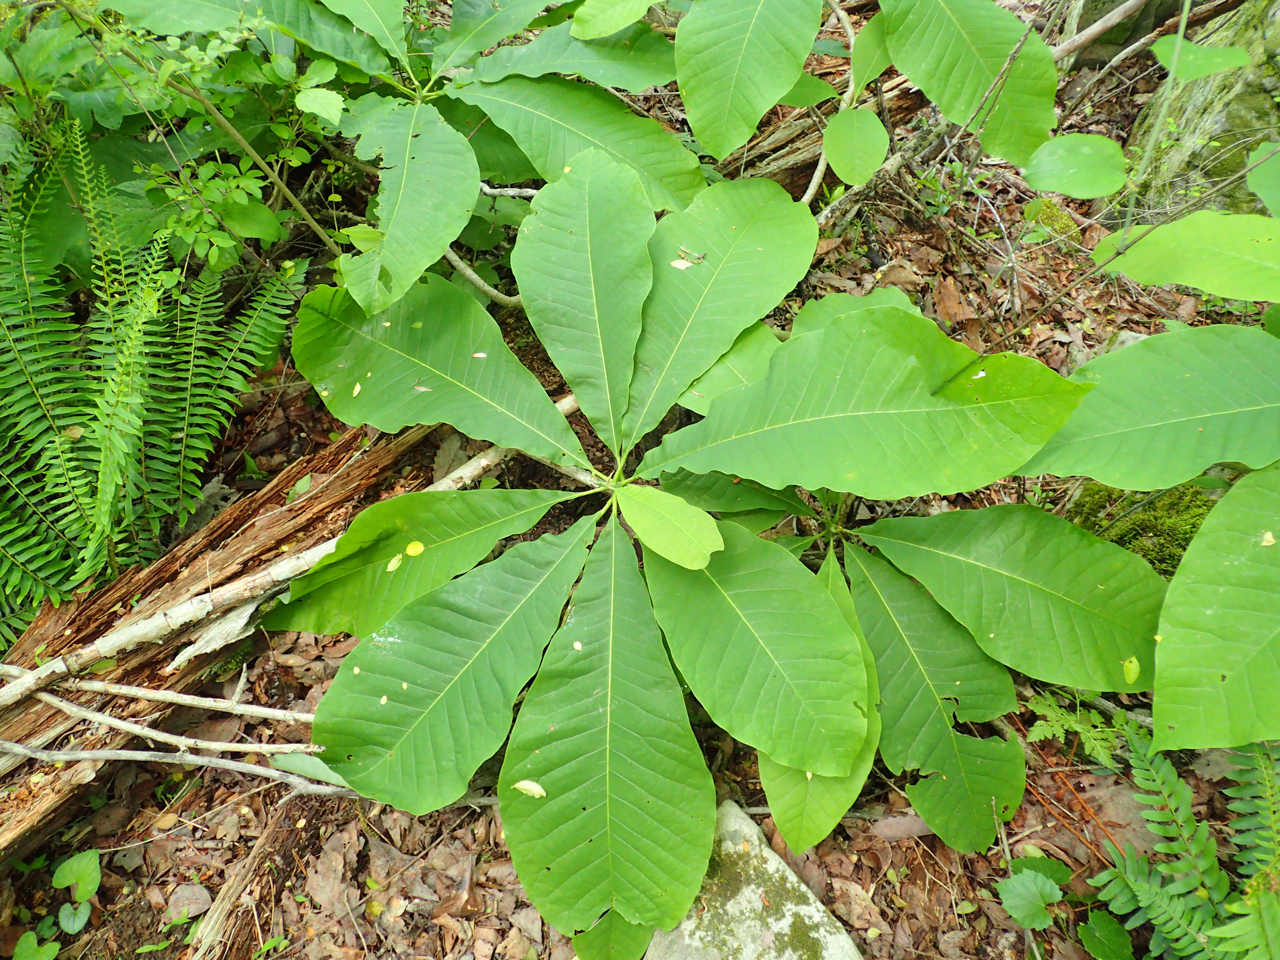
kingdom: Plantae
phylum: Tracheophyta
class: Magnoliopsida
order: Magnoliales
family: Magnoliaceae
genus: Magnolia
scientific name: Magnolia tripetala
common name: Umbrella magnolia
